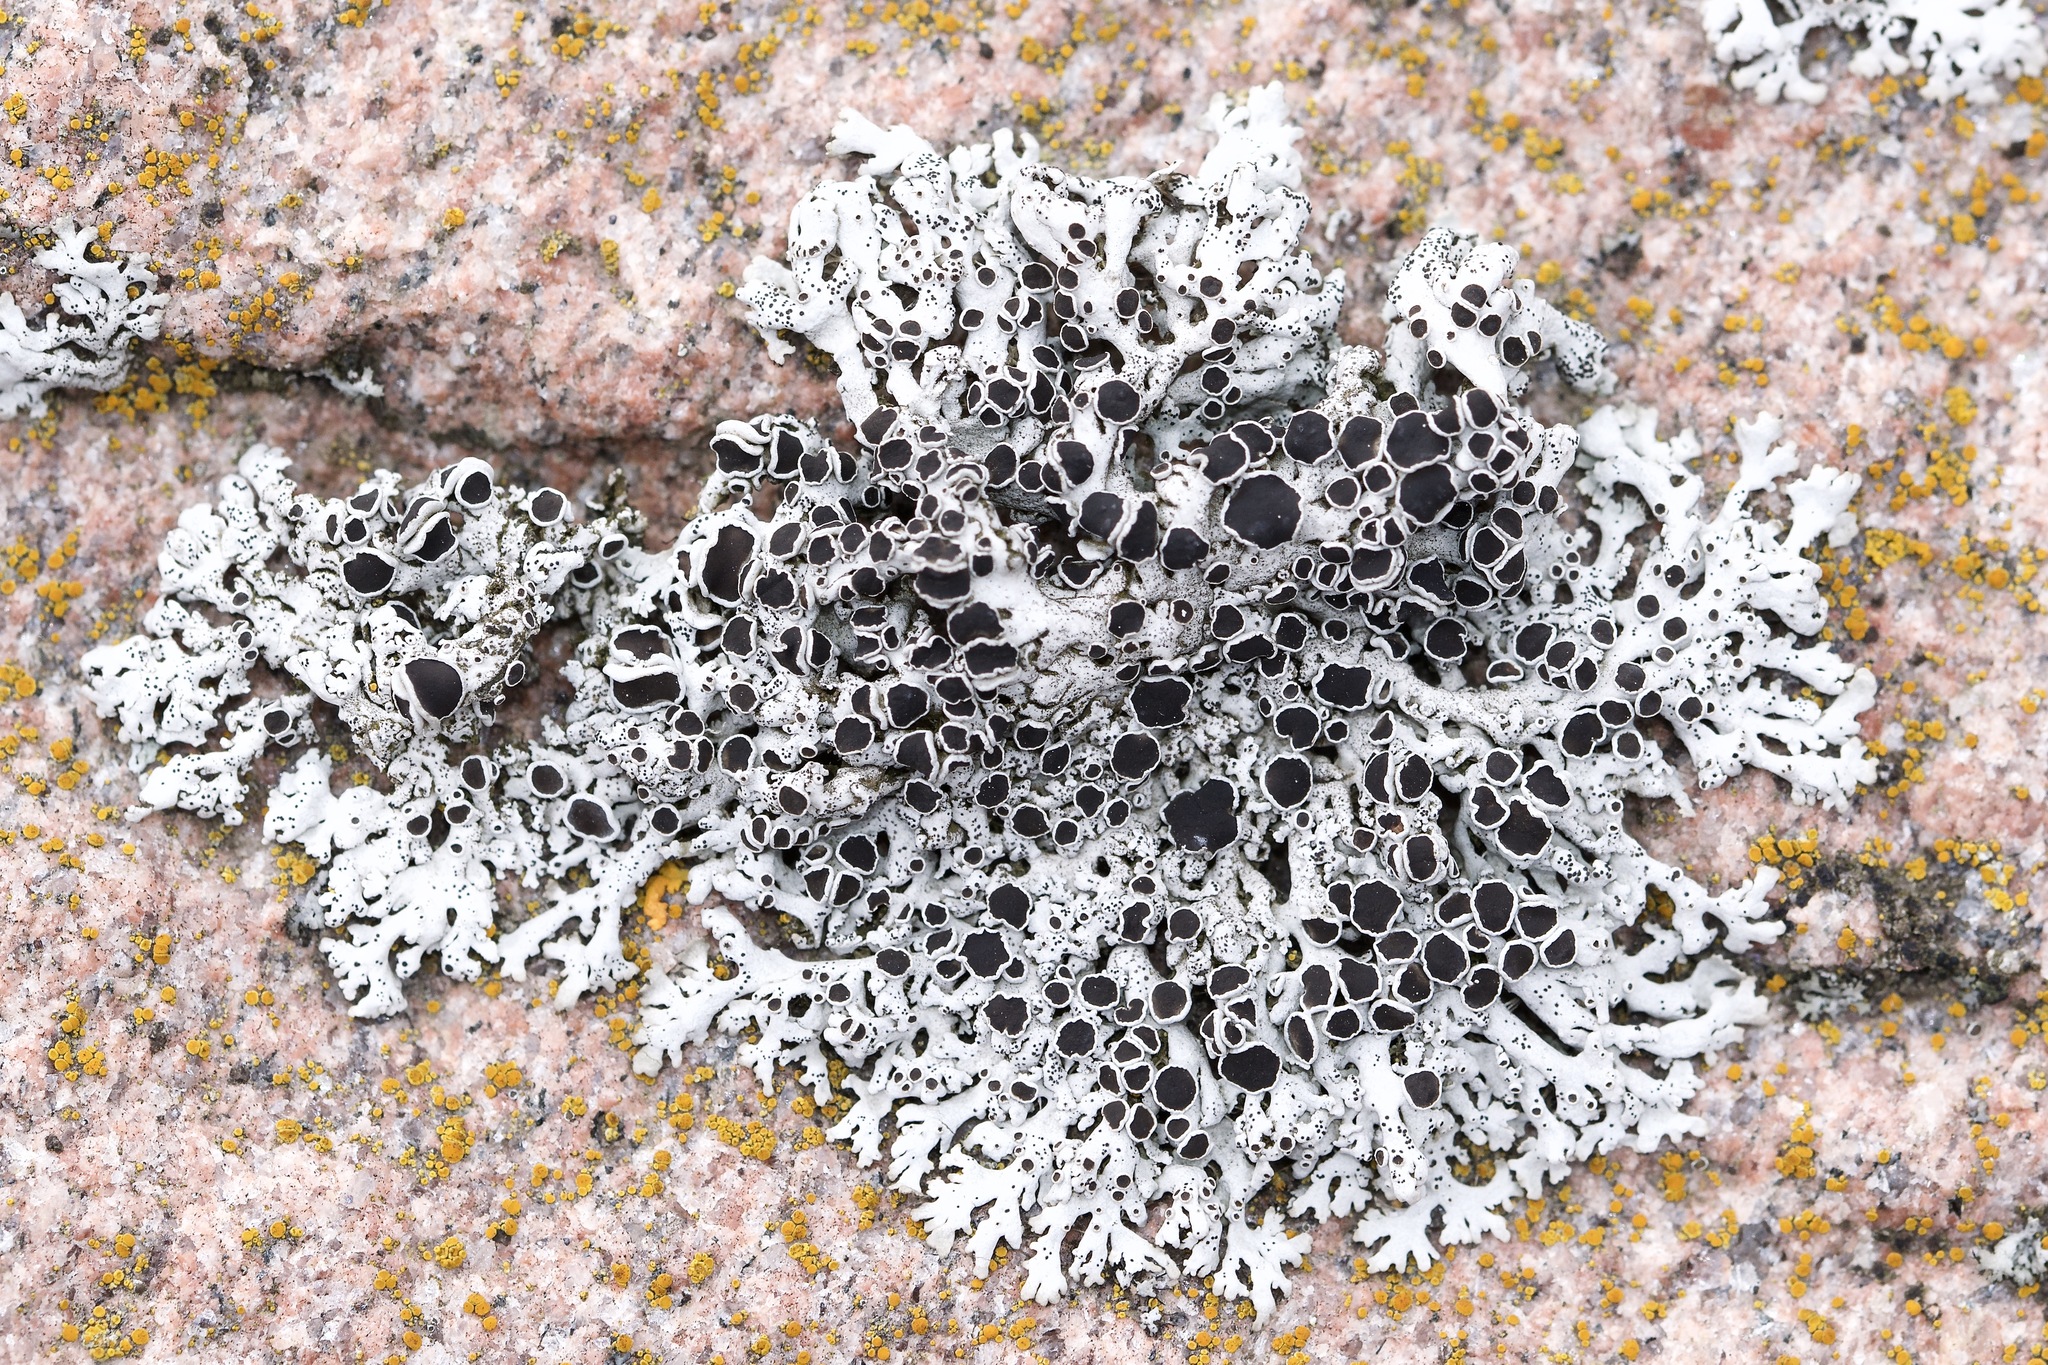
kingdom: Fungi
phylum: Ascomycota
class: Lecanoromycetes
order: Caliciales
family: Physciaceae
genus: Physcia
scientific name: Physcia phaea
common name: Black-eyed rosette lichen
